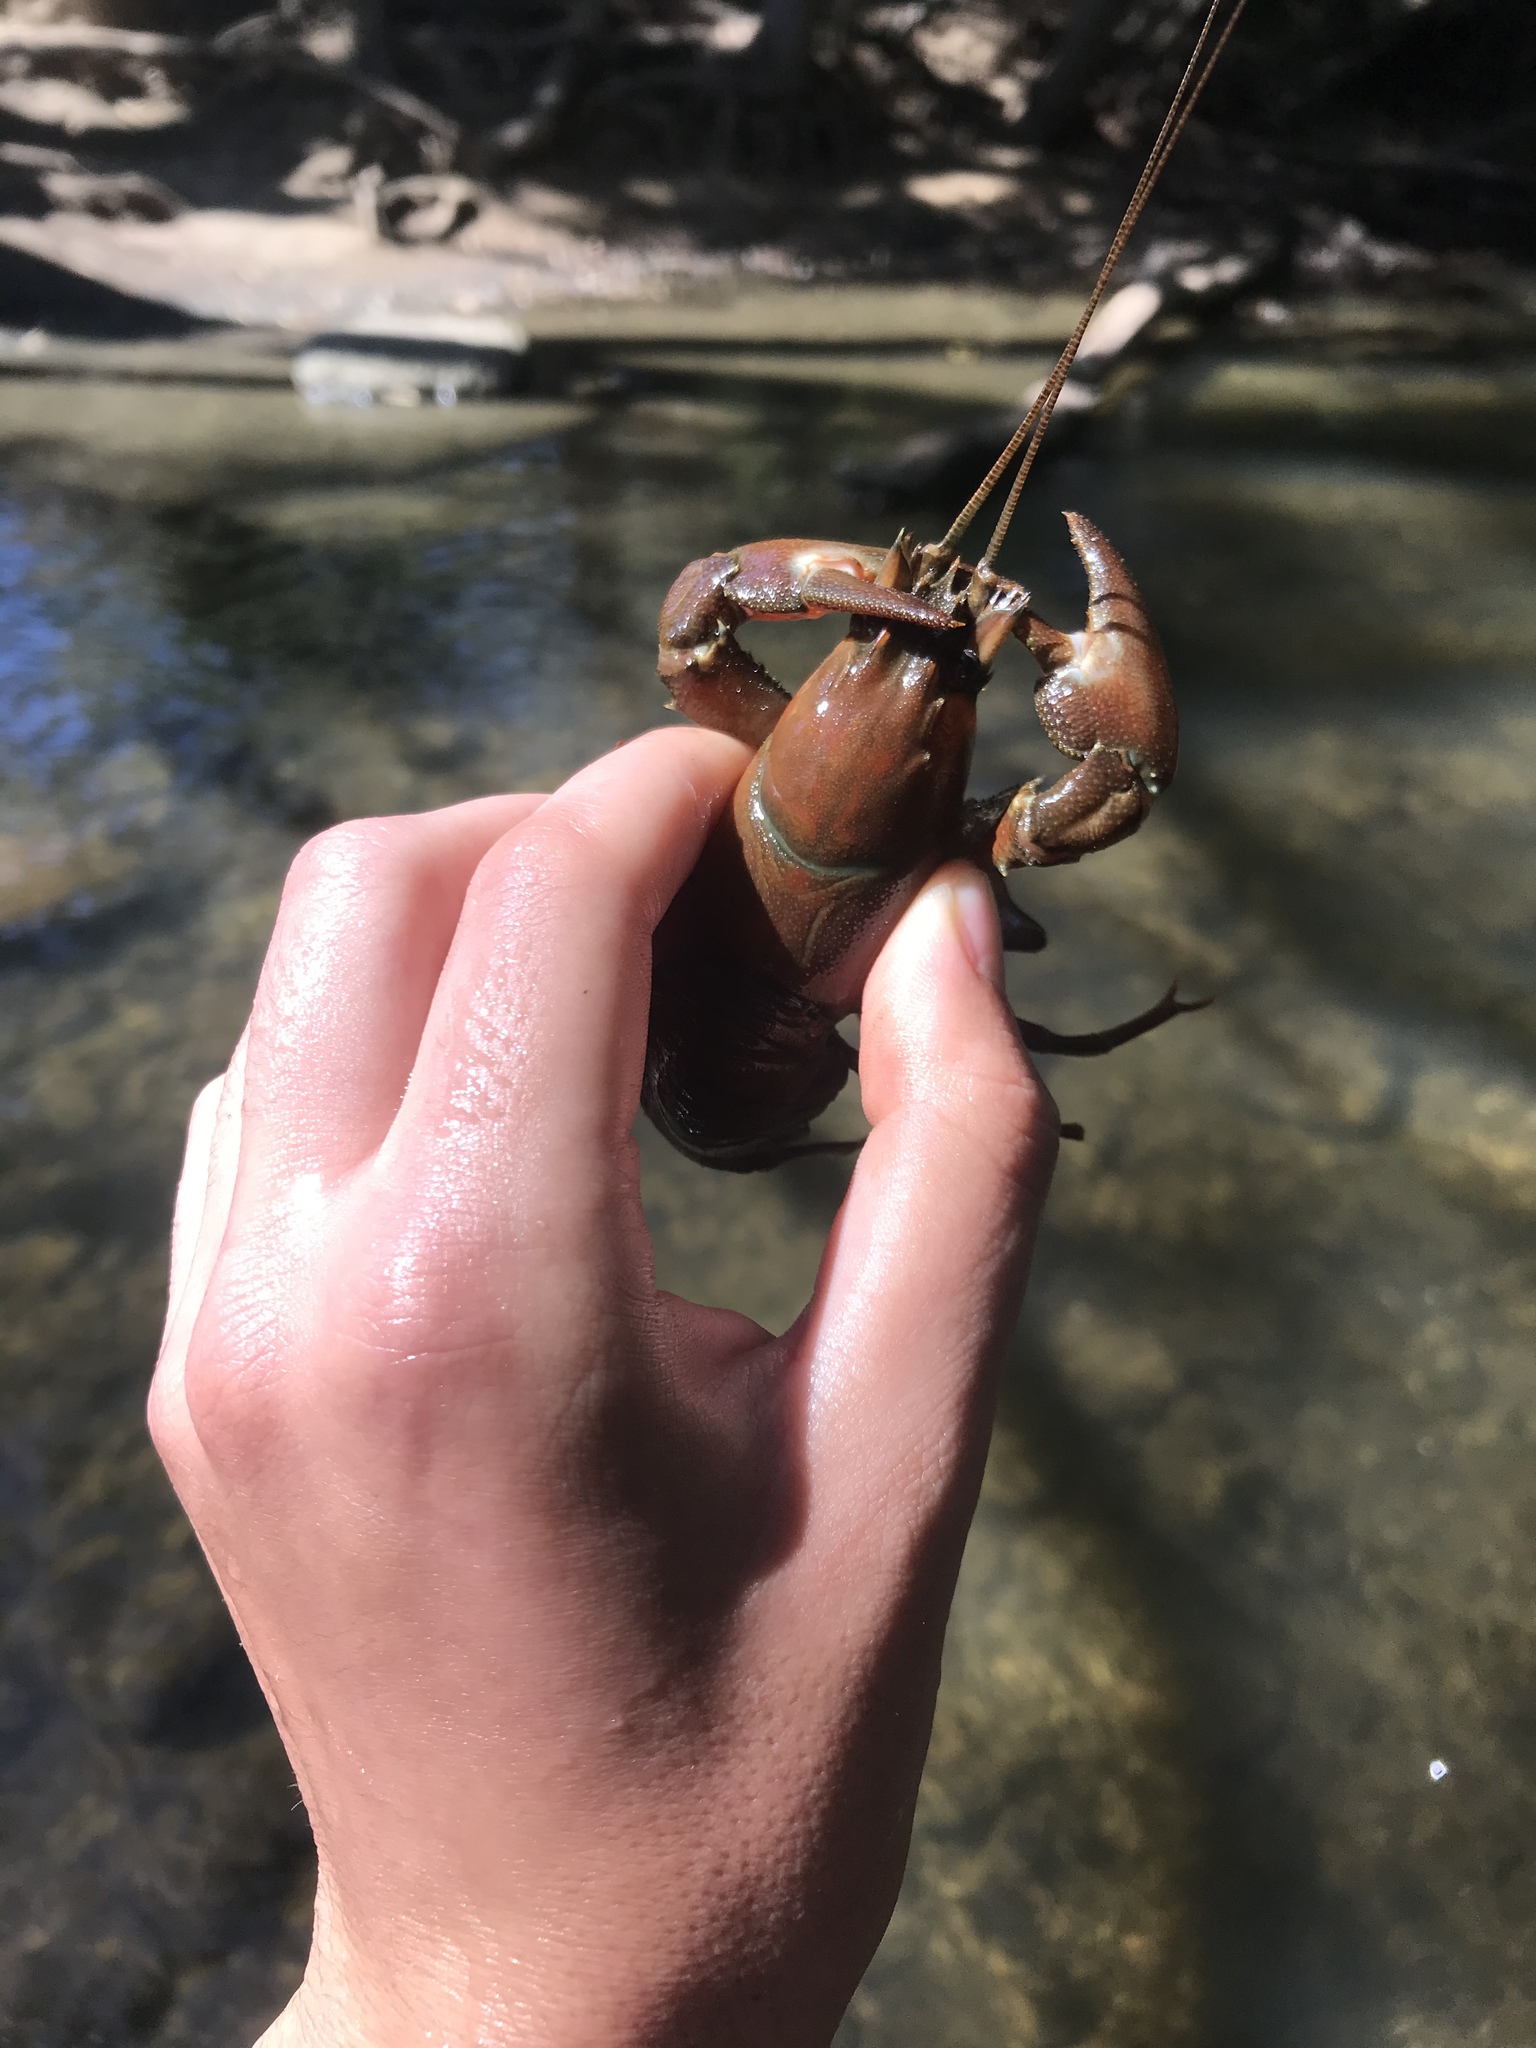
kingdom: Animalia
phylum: Arthropoda
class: Malacostraca
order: Decapoda
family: Astacidae
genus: Pacifastacus
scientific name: Pacifastacus leniusculus
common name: Signal crayfish
